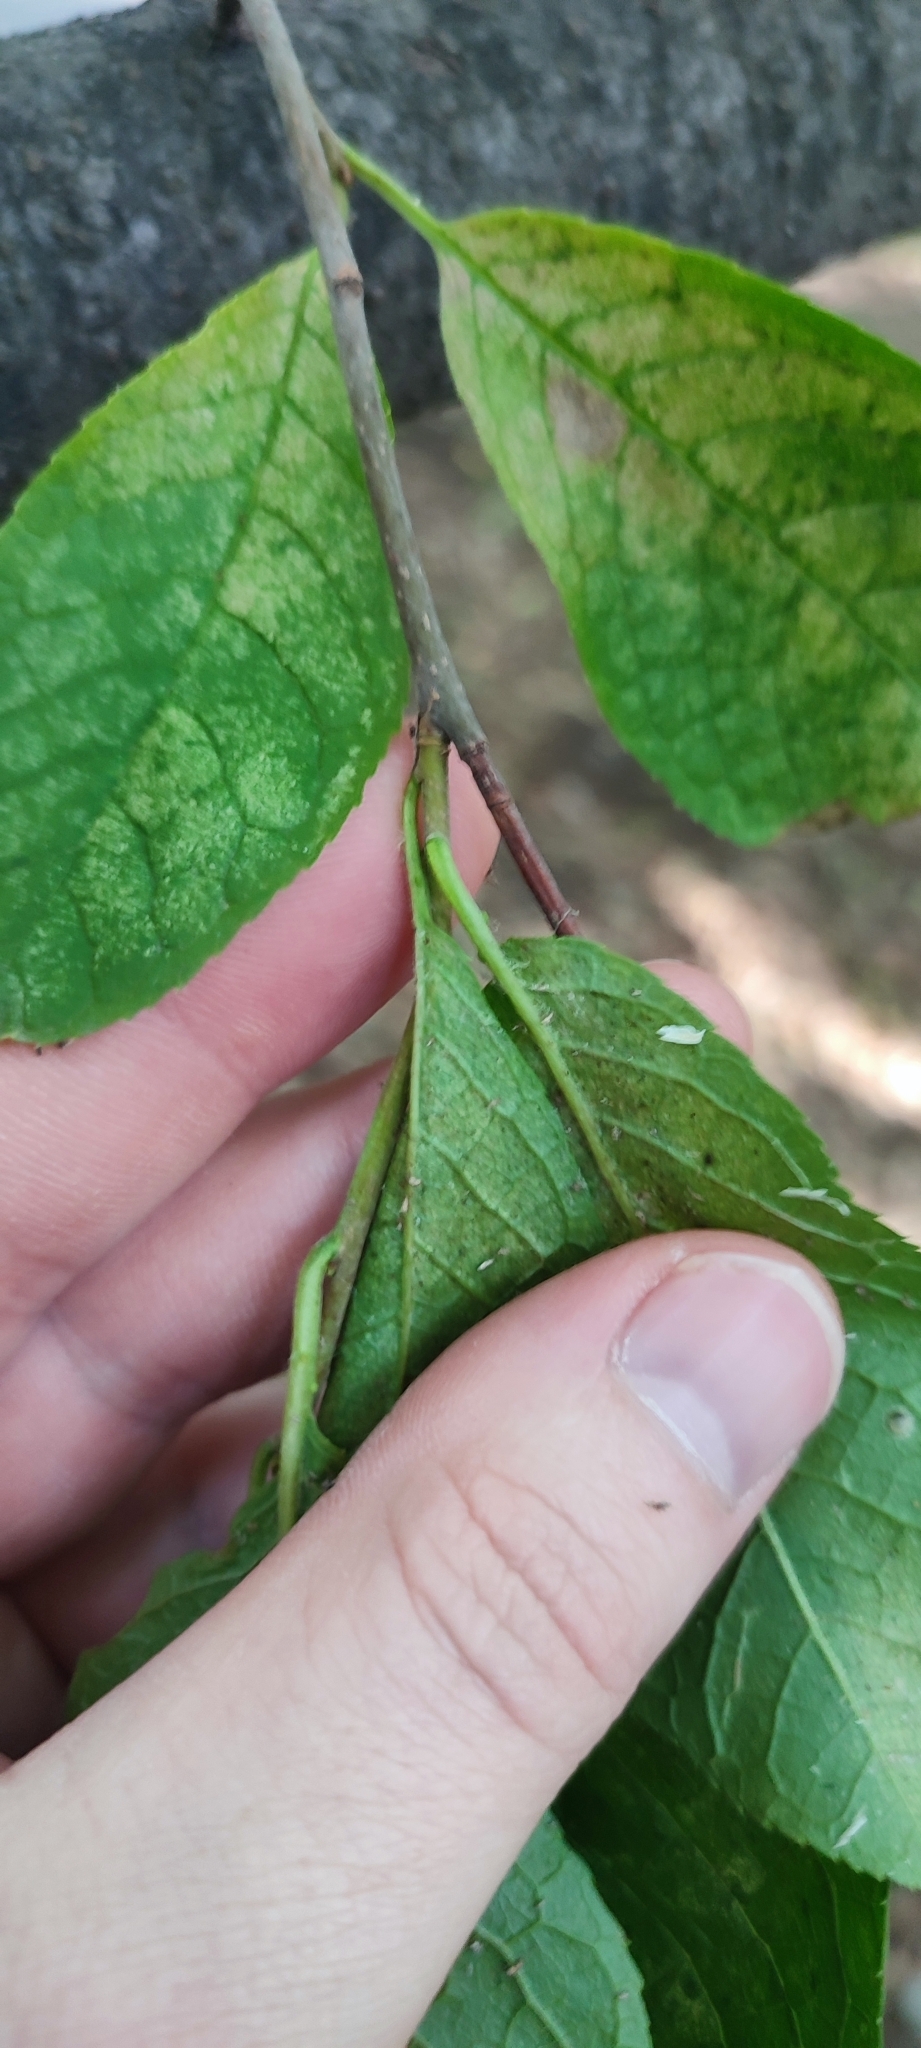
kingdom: Plantae
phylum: Tracheophyta
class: Magnoliopsida
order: Rosales
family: Rosaceae
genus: Prunus
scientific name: Prunus padus
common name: Bird cherry
